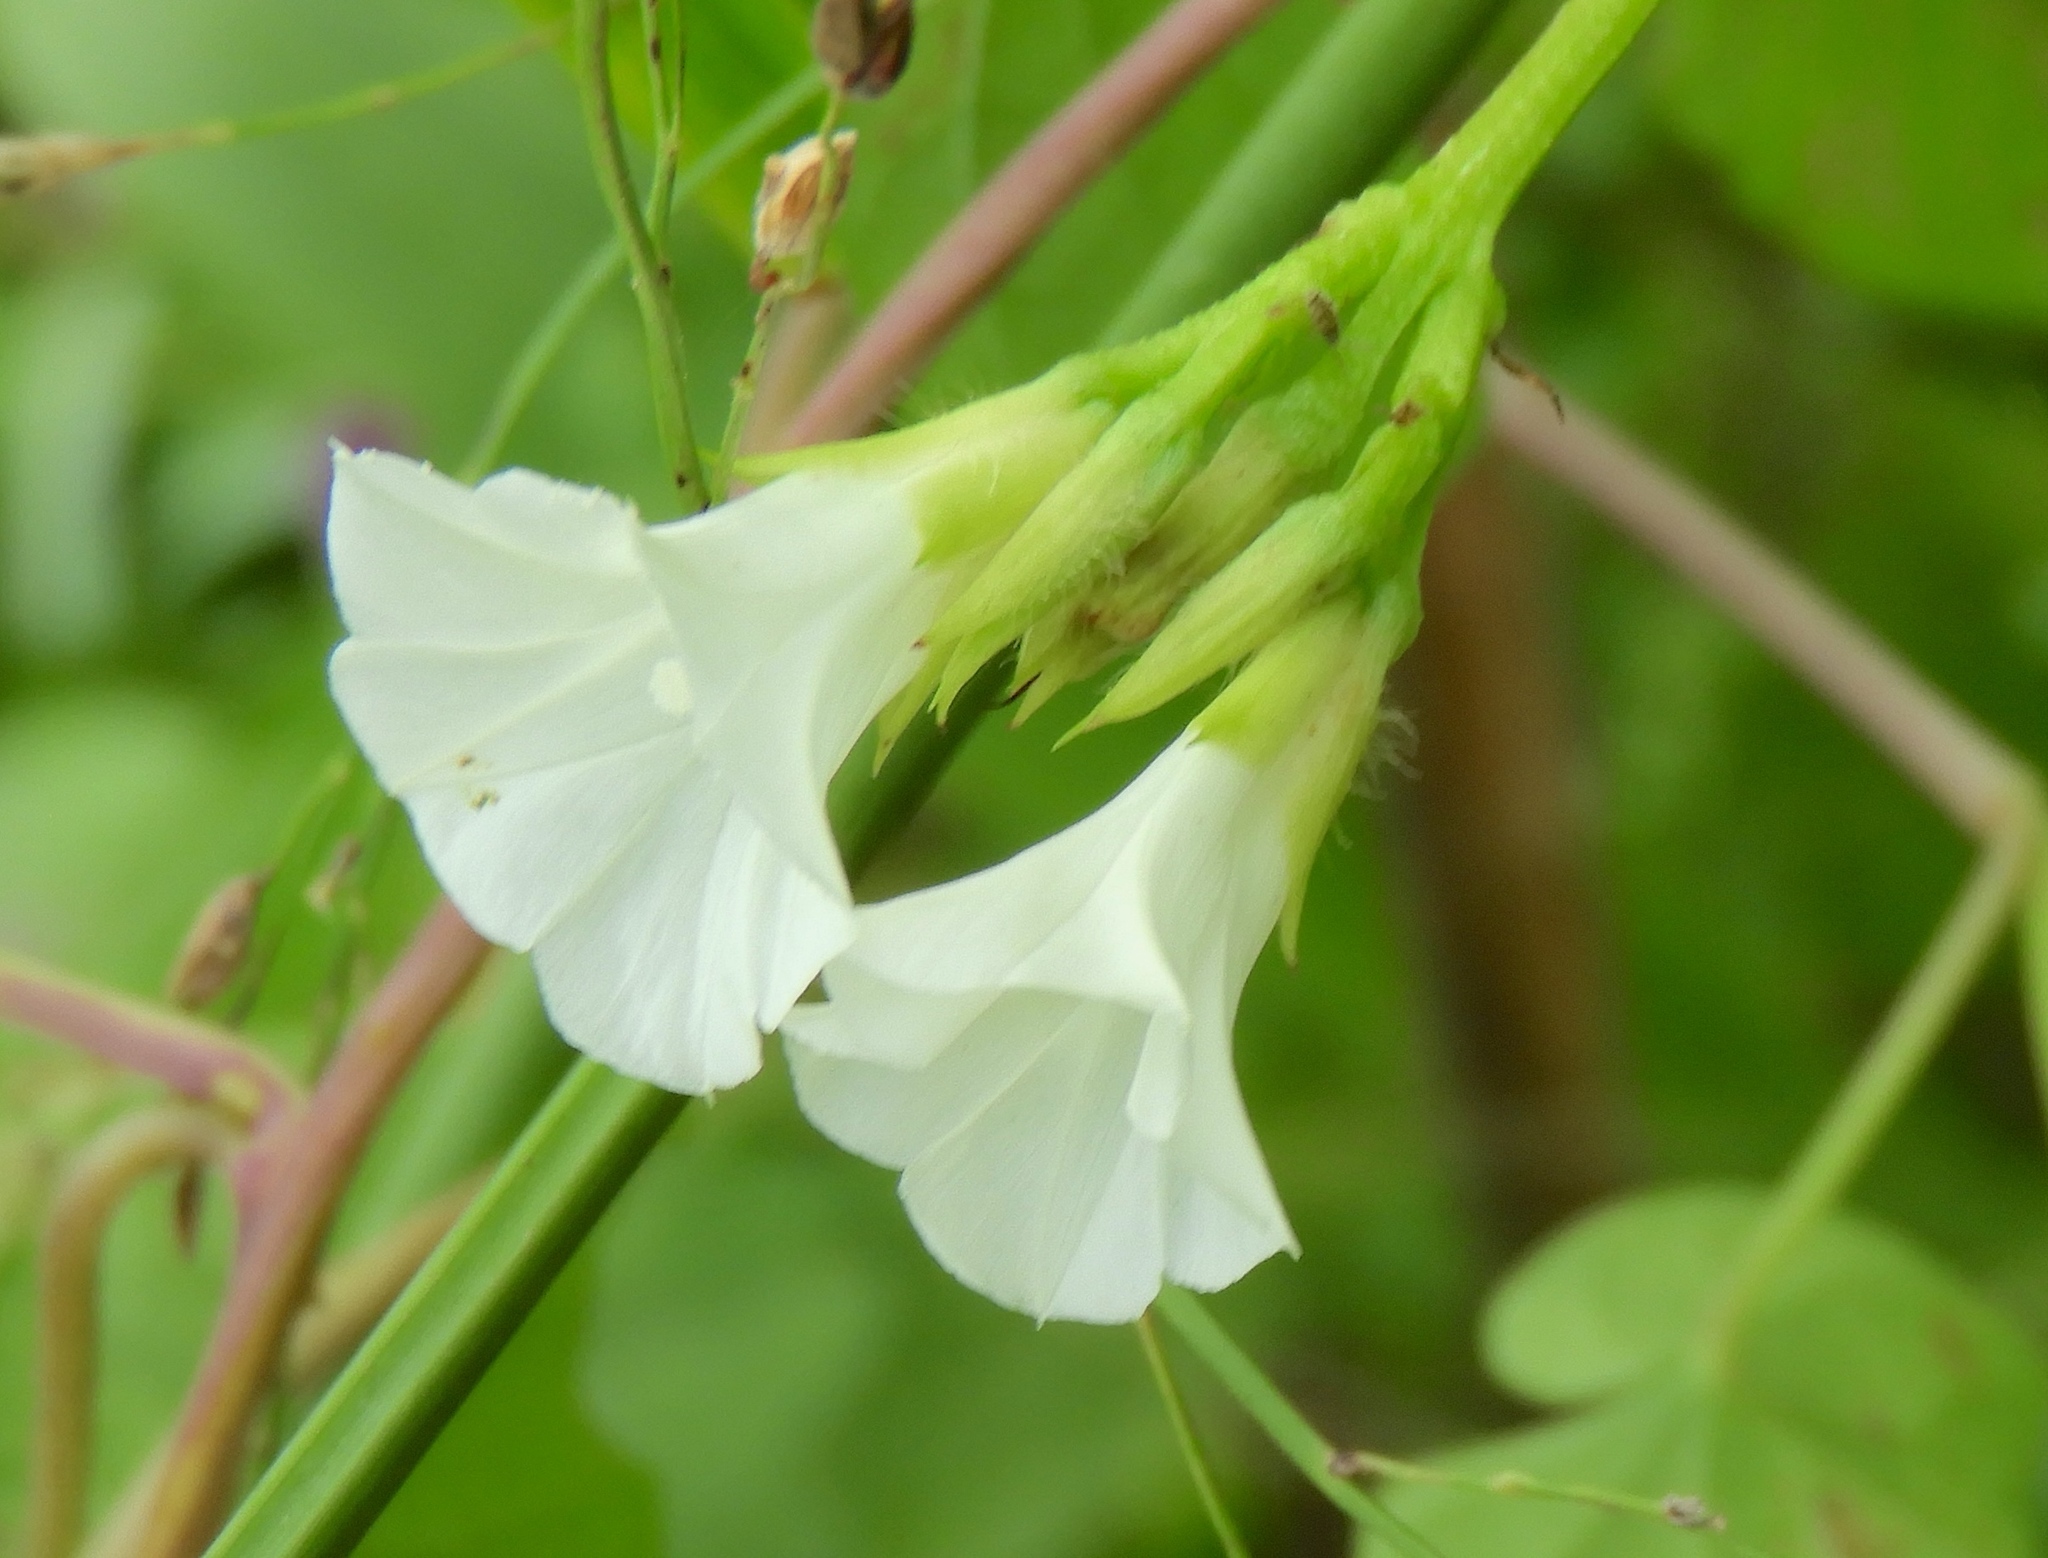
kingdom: Plantae
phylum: Tracheophyta
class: Magnoliopsida
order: Solanales
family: Convolvulaceae
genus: Ipomoea
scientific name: Ipomoea triloba
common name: Little-bell
